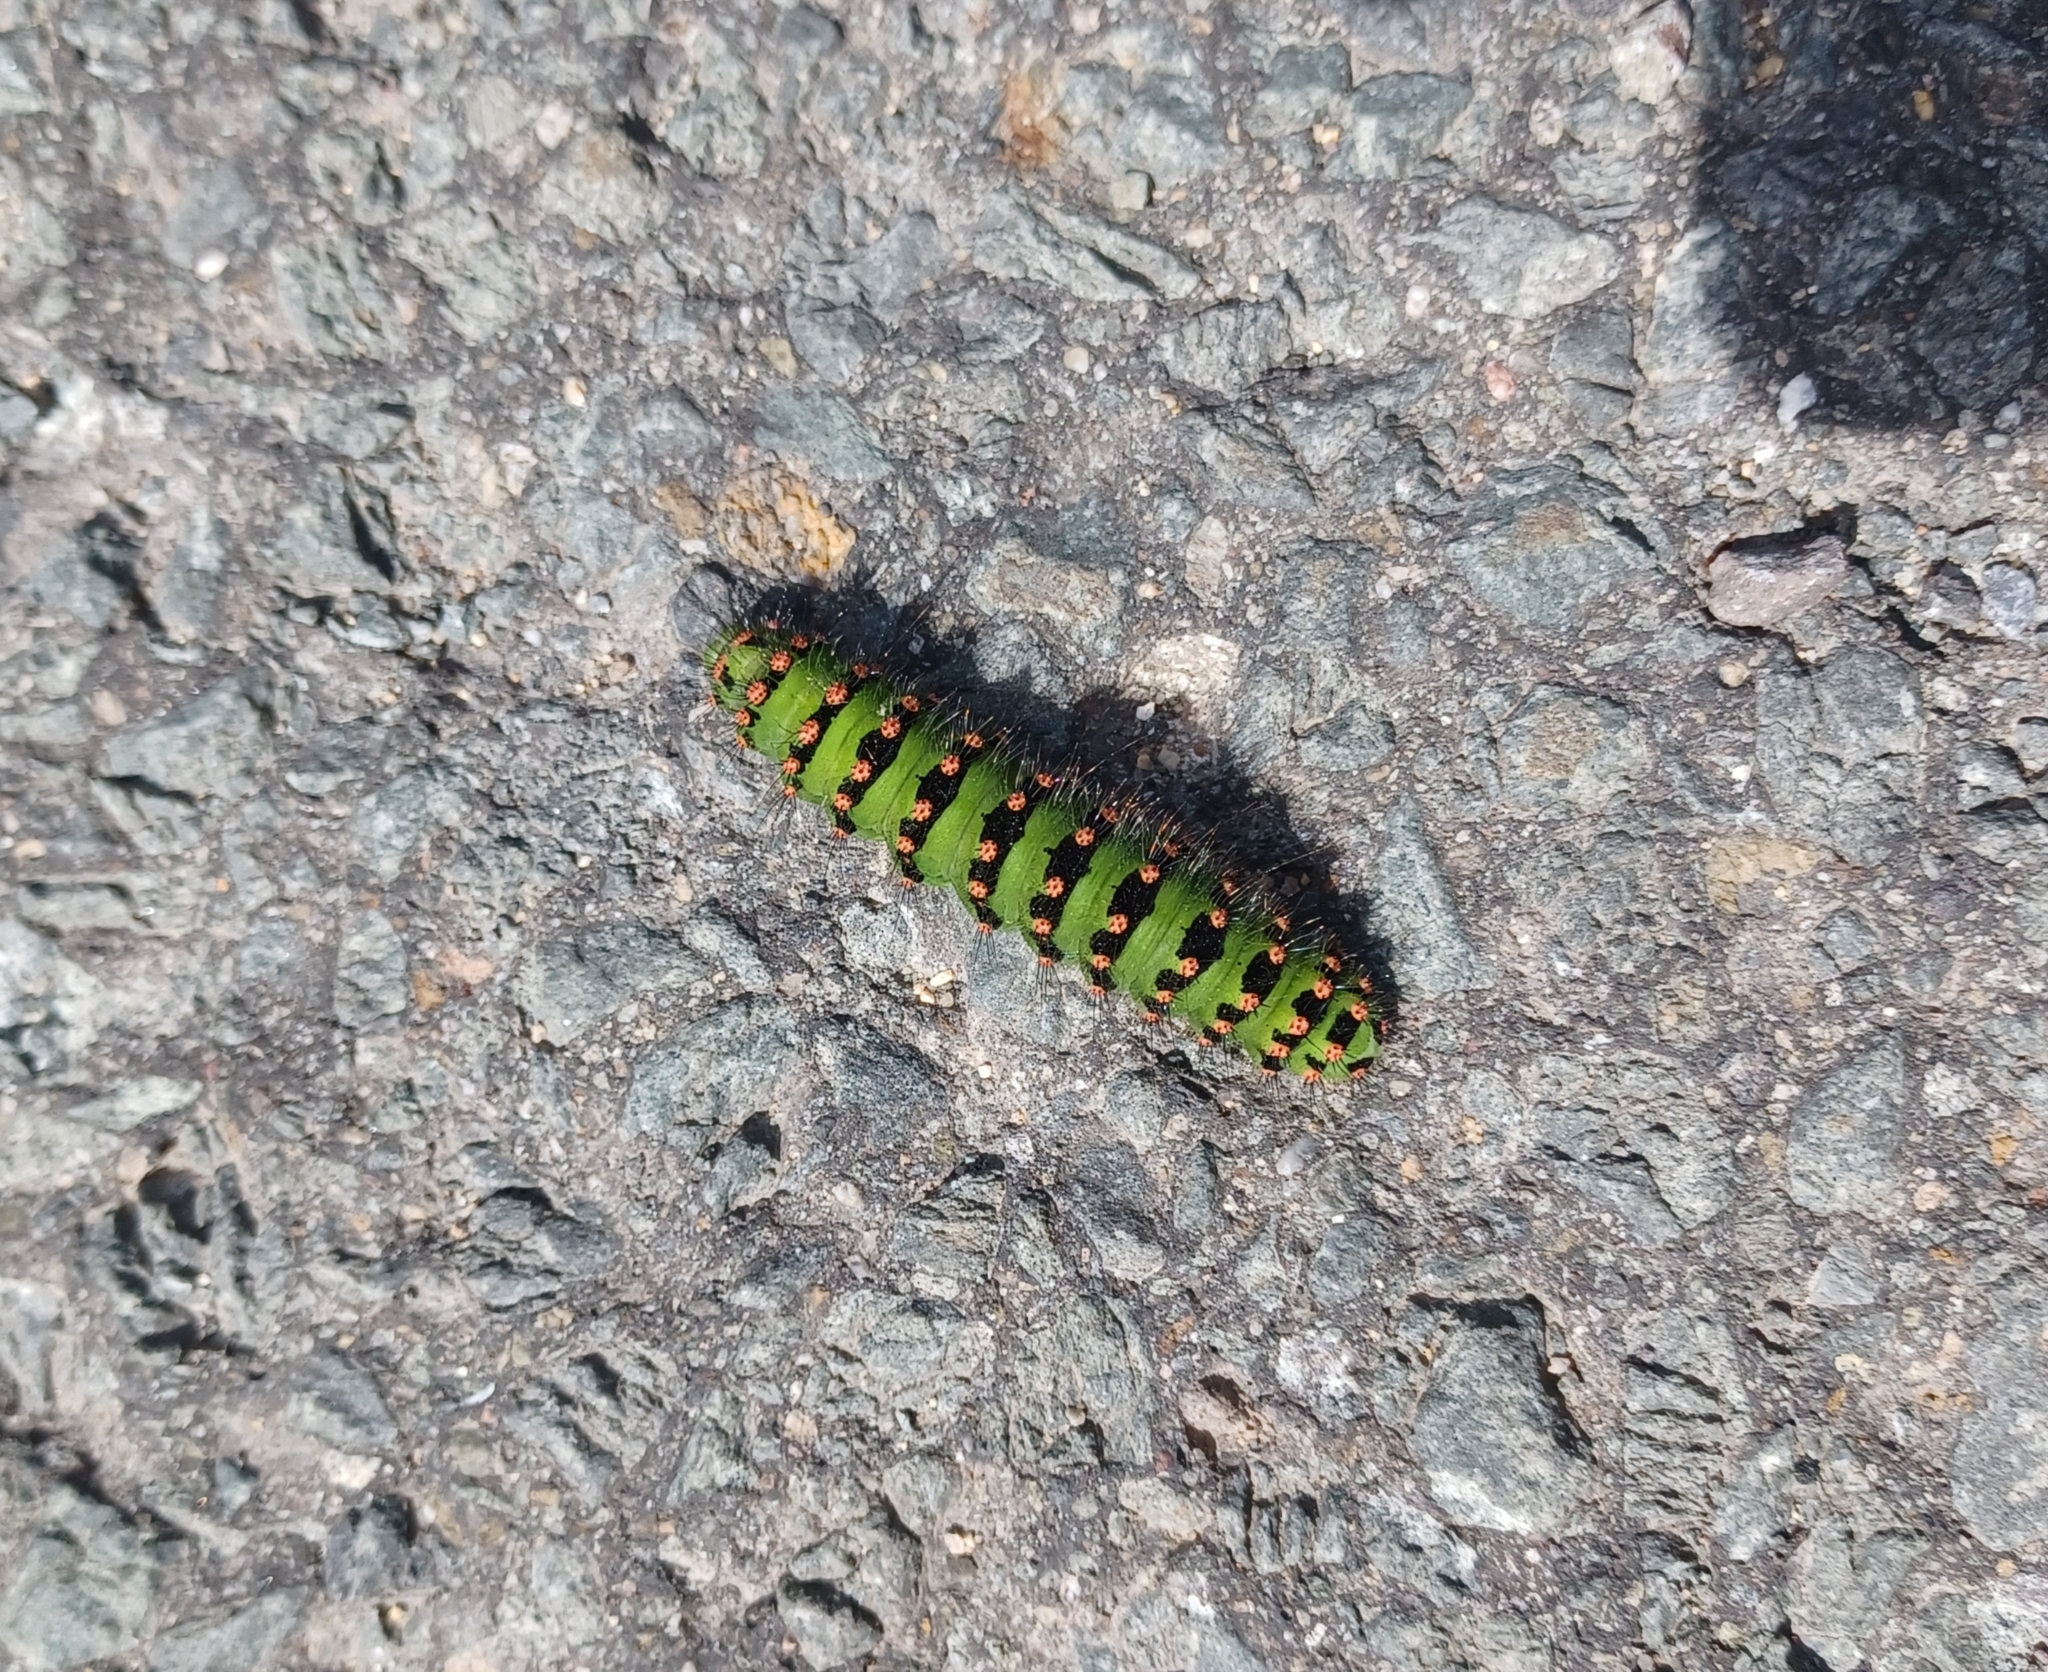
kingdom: Animalia
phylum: Arthropoda
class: Insecta
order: Lepidoptera
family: Saturniidae
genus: Saturnia
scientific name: Saturnia pavonia
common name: Emperor moth
